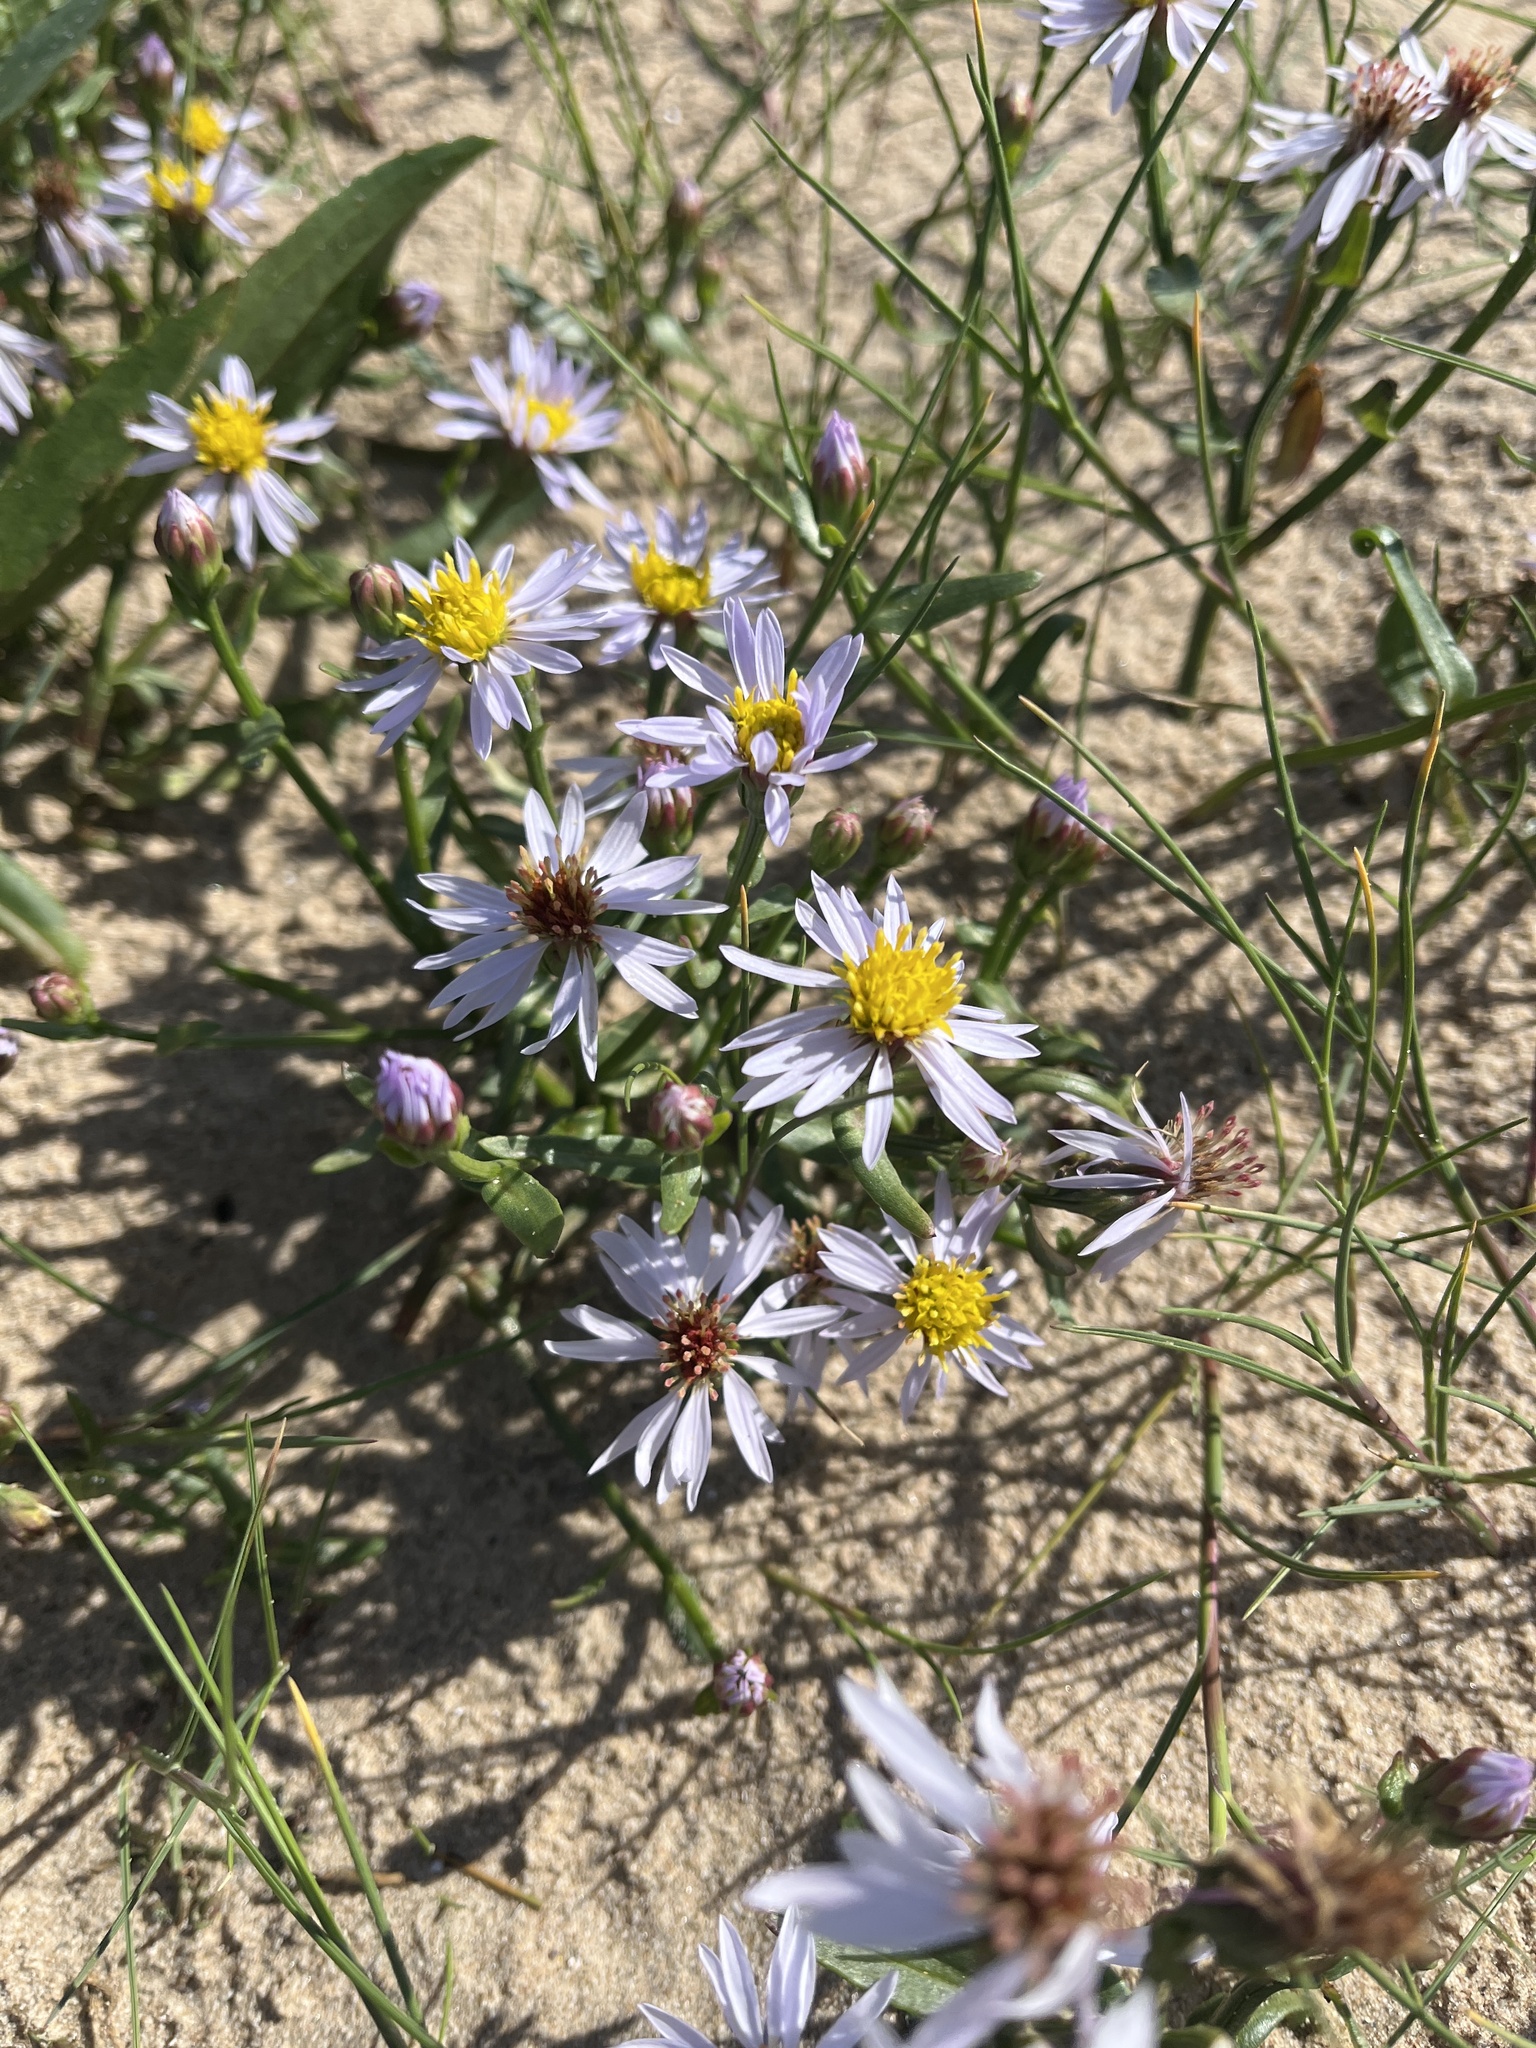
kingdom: Plantae
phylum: Tracheophyta
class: Magnoliopsida
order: Asterales
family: Asteraceae
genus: Tripolium
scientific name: Tripolium pannonicum
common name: Sea aster
